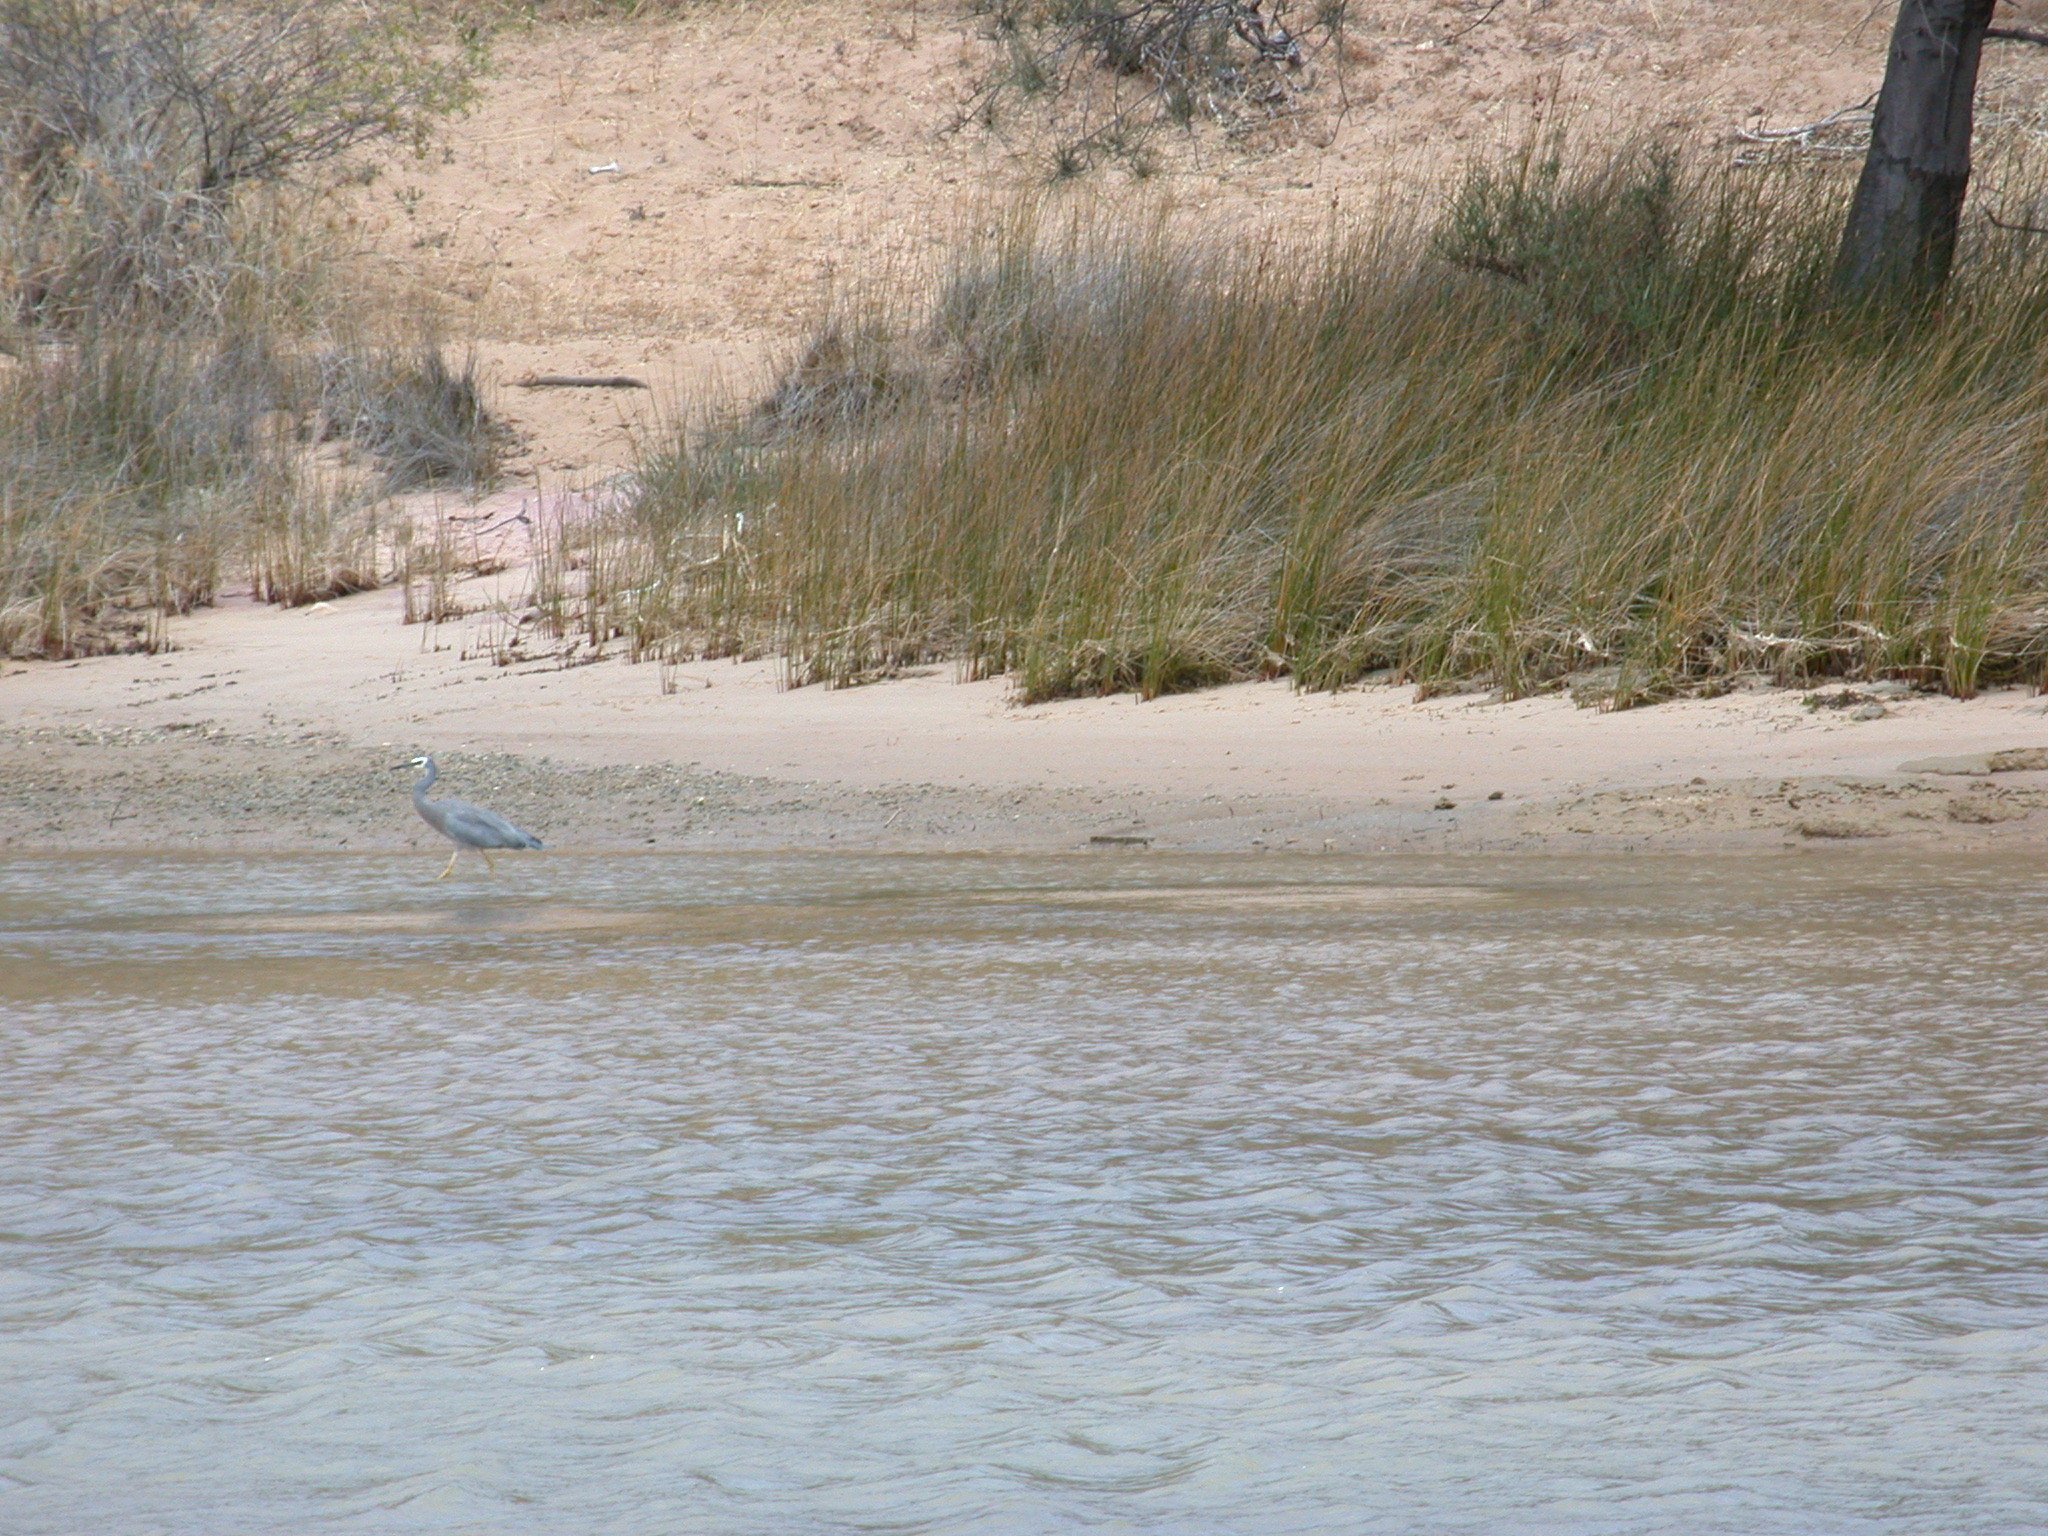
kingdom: Animalia
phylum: Chordata
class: Aves
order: Pelecaniformes
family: Ardeidae
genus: Egretta
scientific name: Egretta novaehollandiae
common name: White-faced heron
